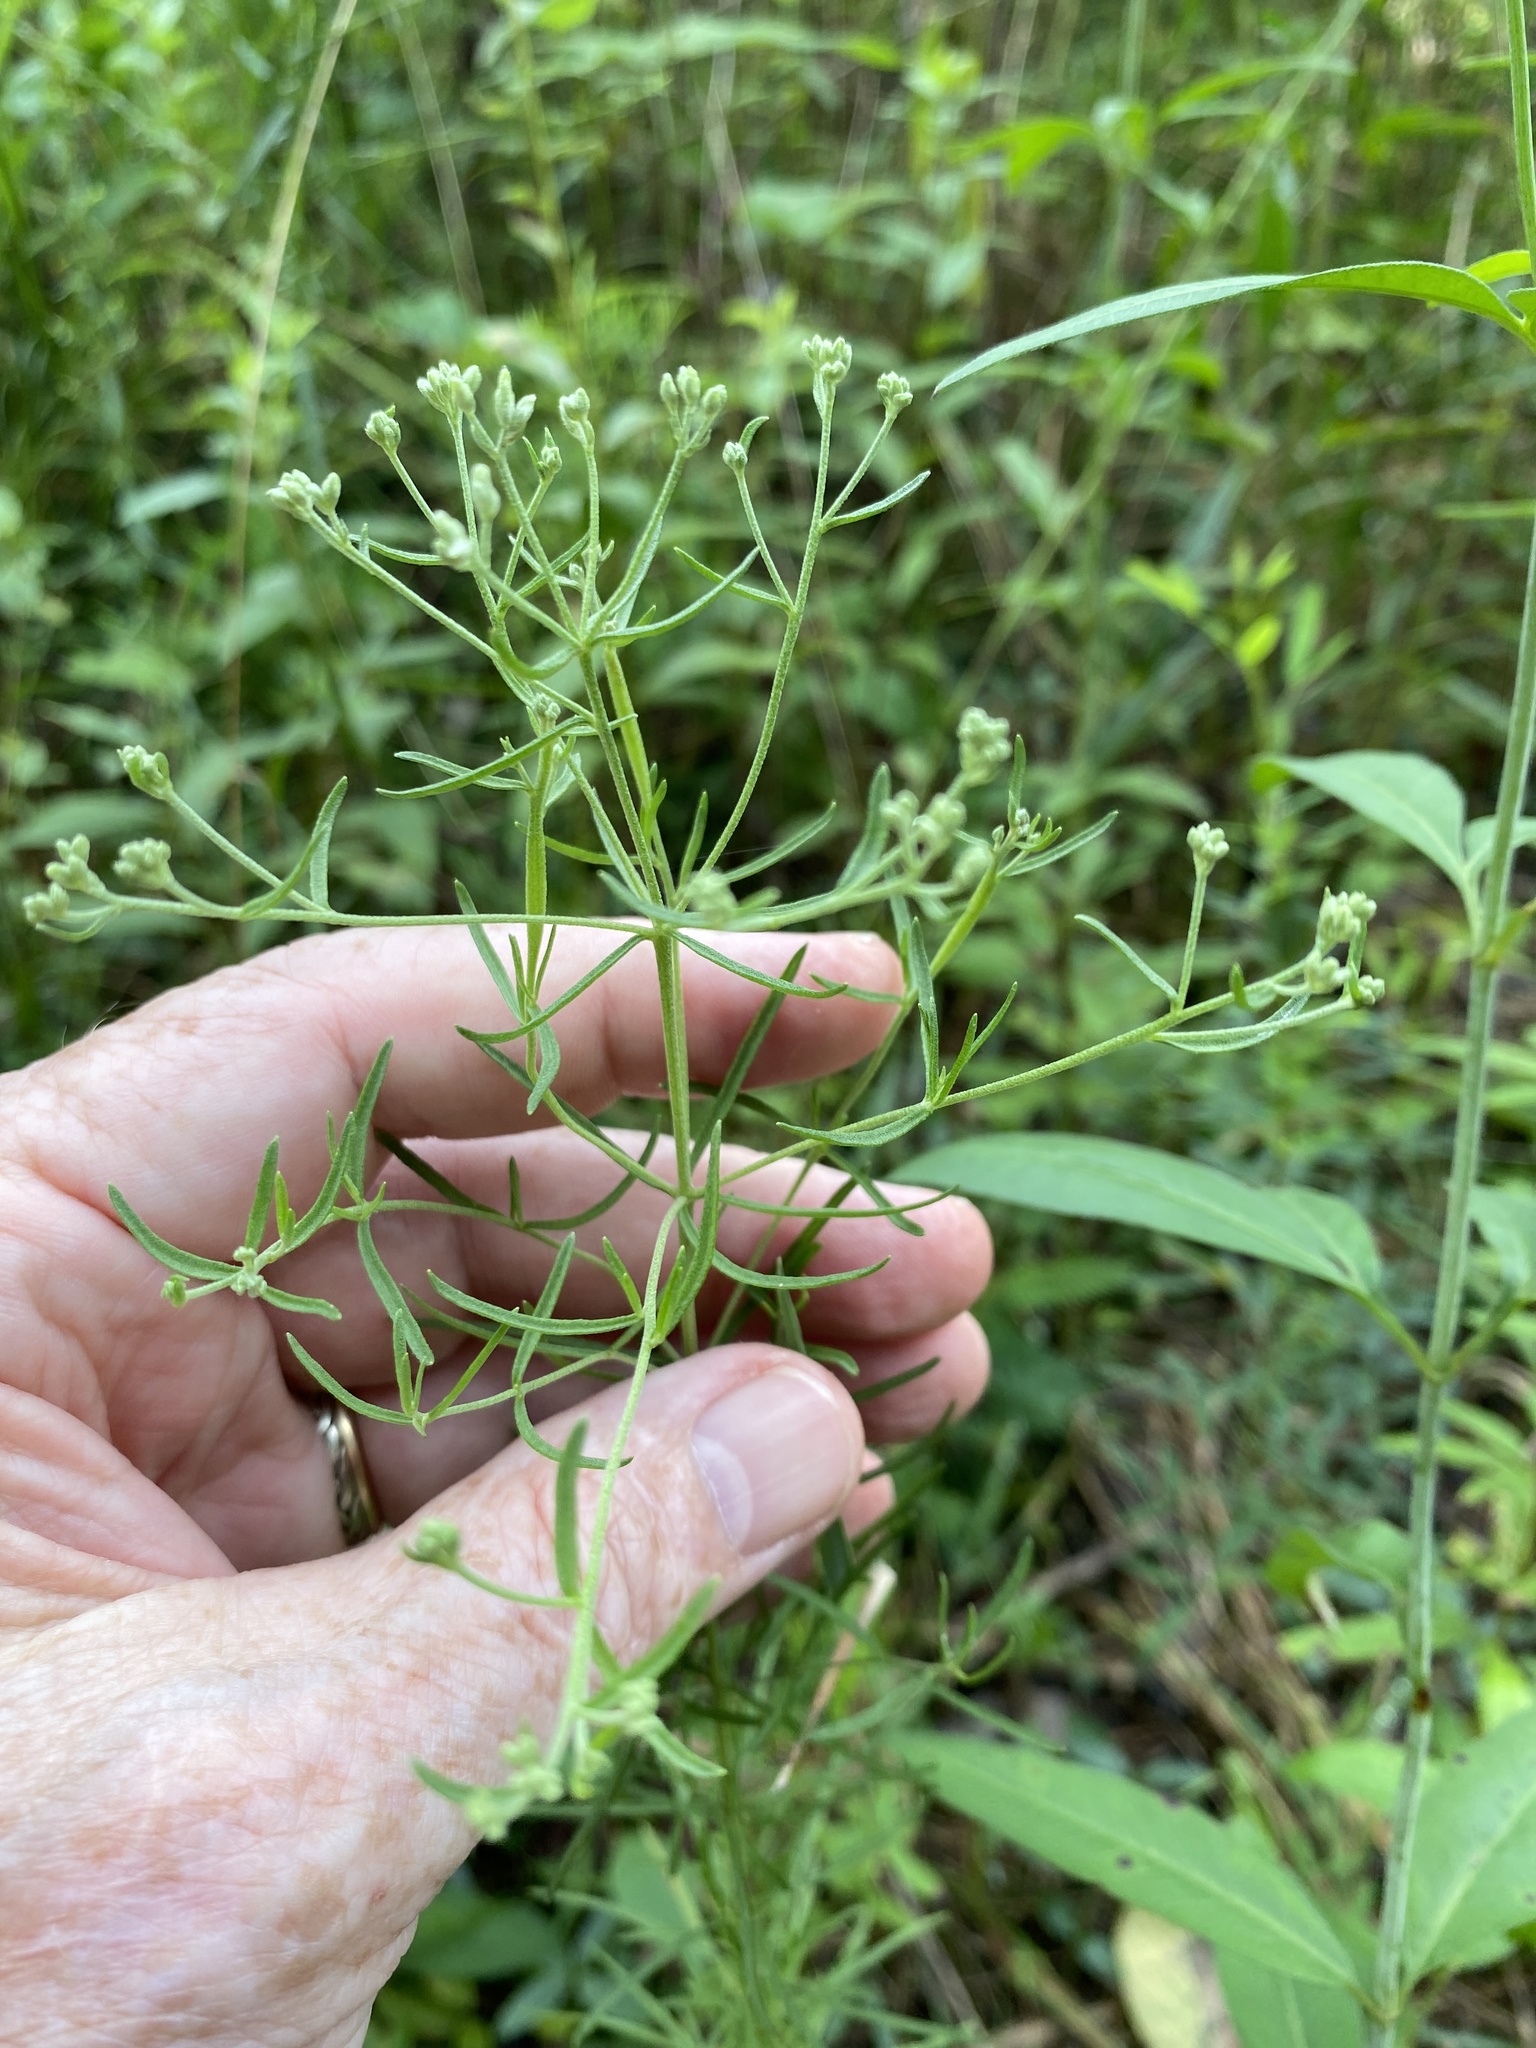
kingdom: Plantae
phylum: Tracheophyta
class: Magnoliopsida
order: Asterales
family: Asteraceae
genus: Eupatorium
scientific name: Eupatorium hyssopifolium
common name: Hyssop-leaf thoroughwort
